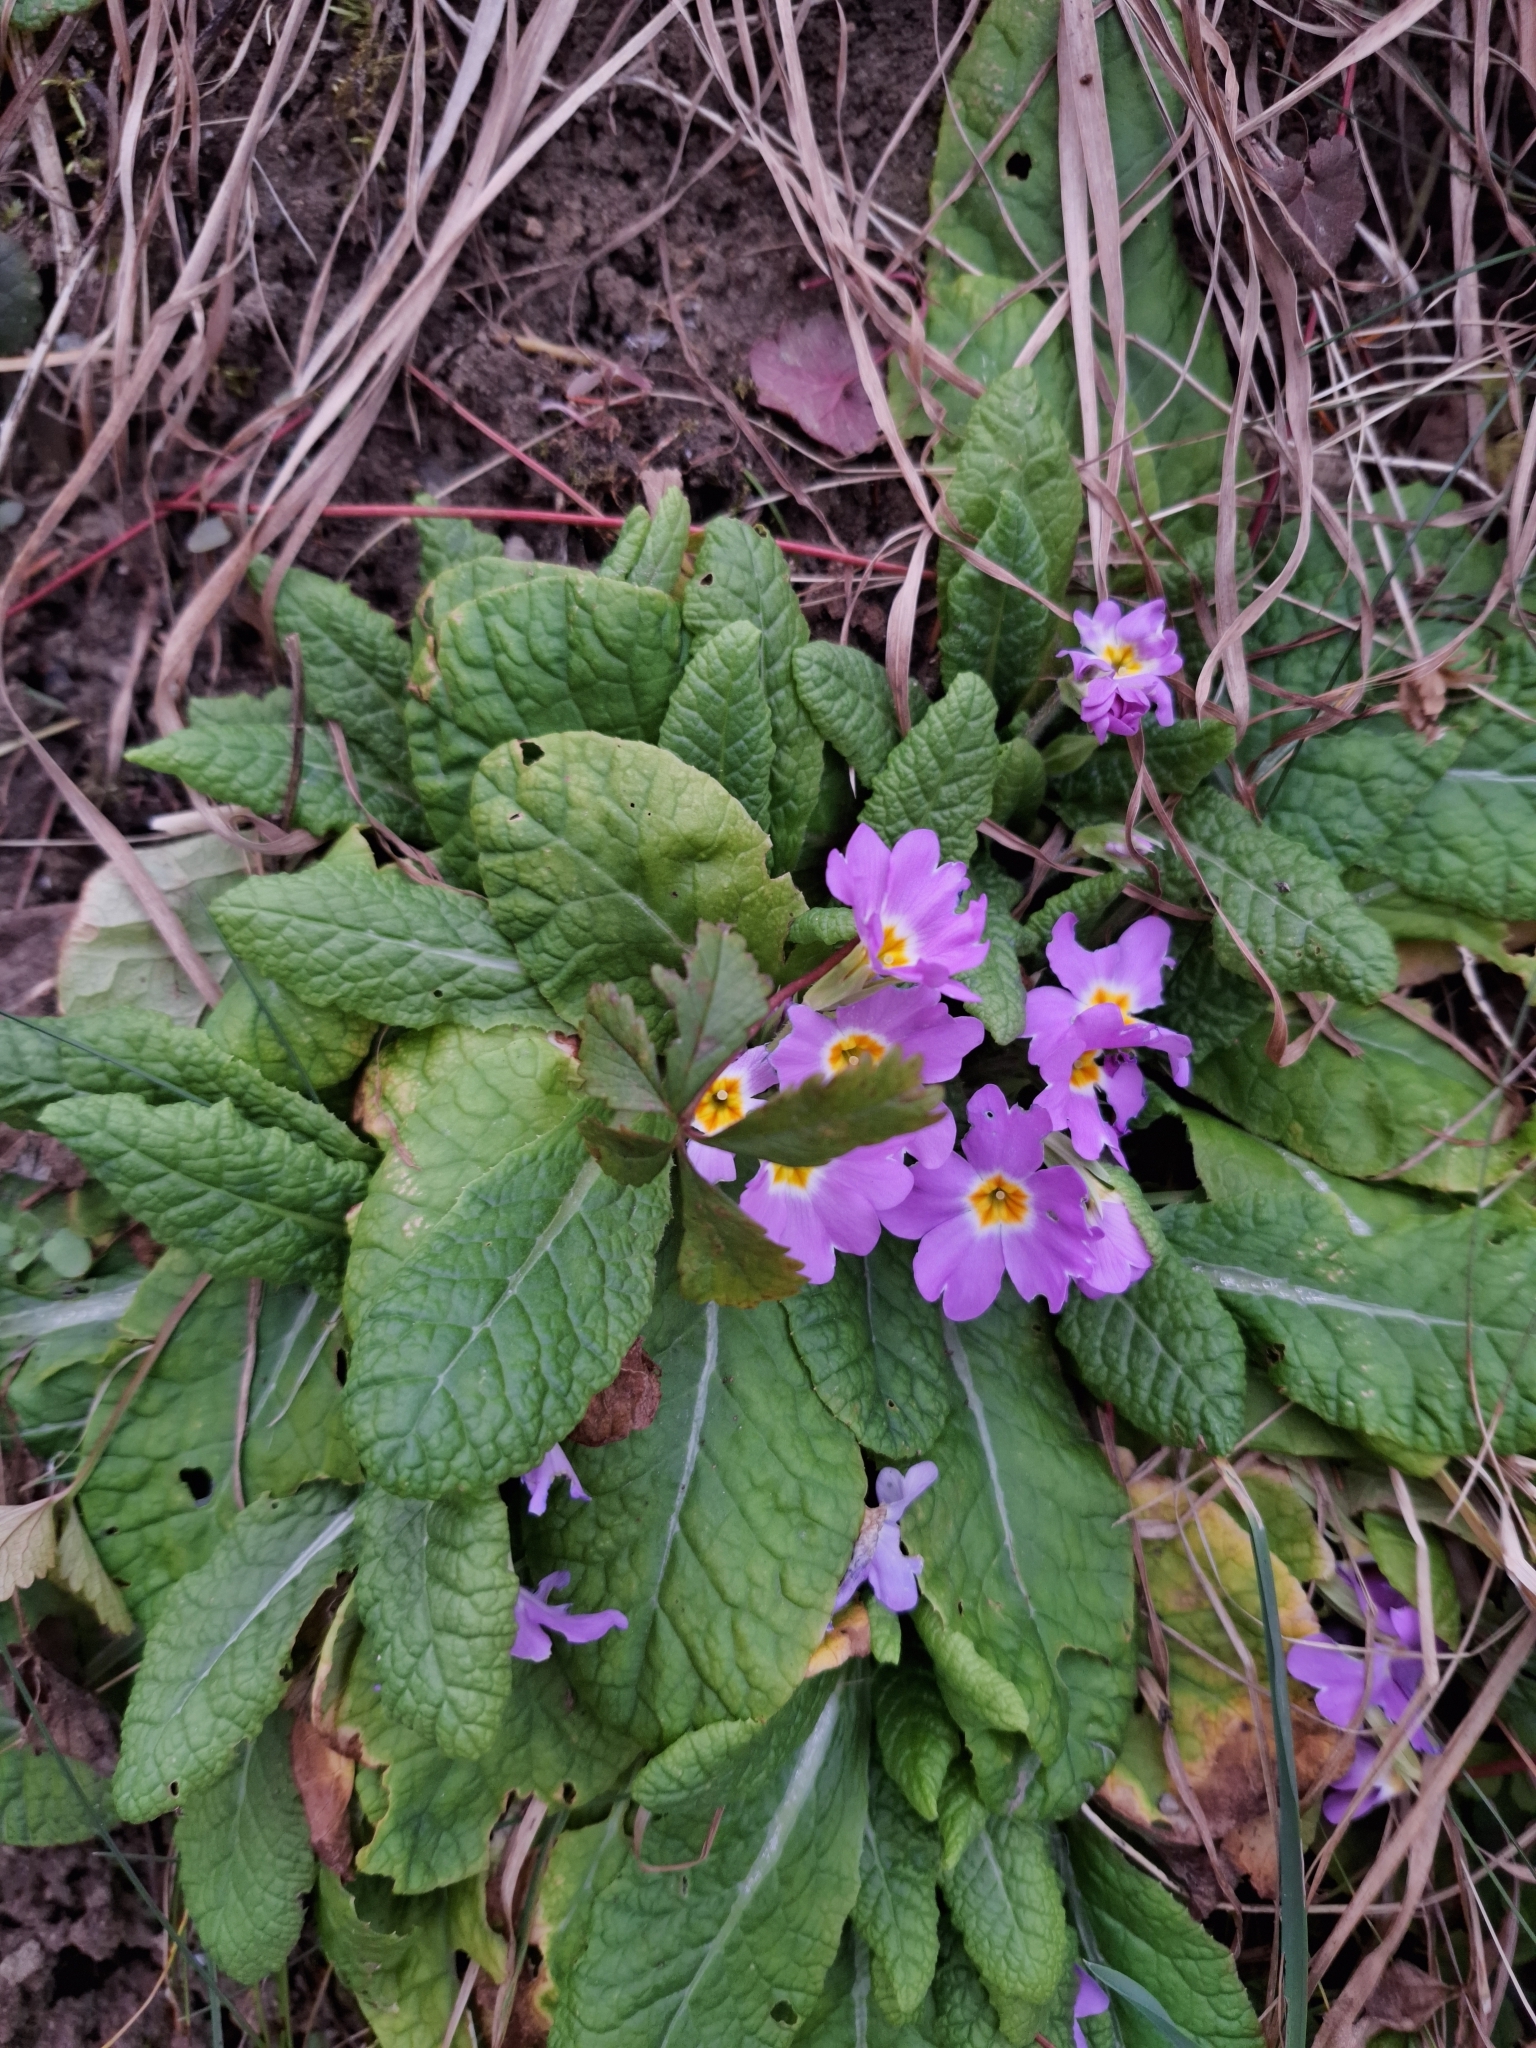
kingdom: Plantae
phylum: Tracheophyta
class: Magnoliopsida
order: Ericales
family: Primulaceae
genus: Primula
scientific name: Primula vulgaris
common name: Primrose
